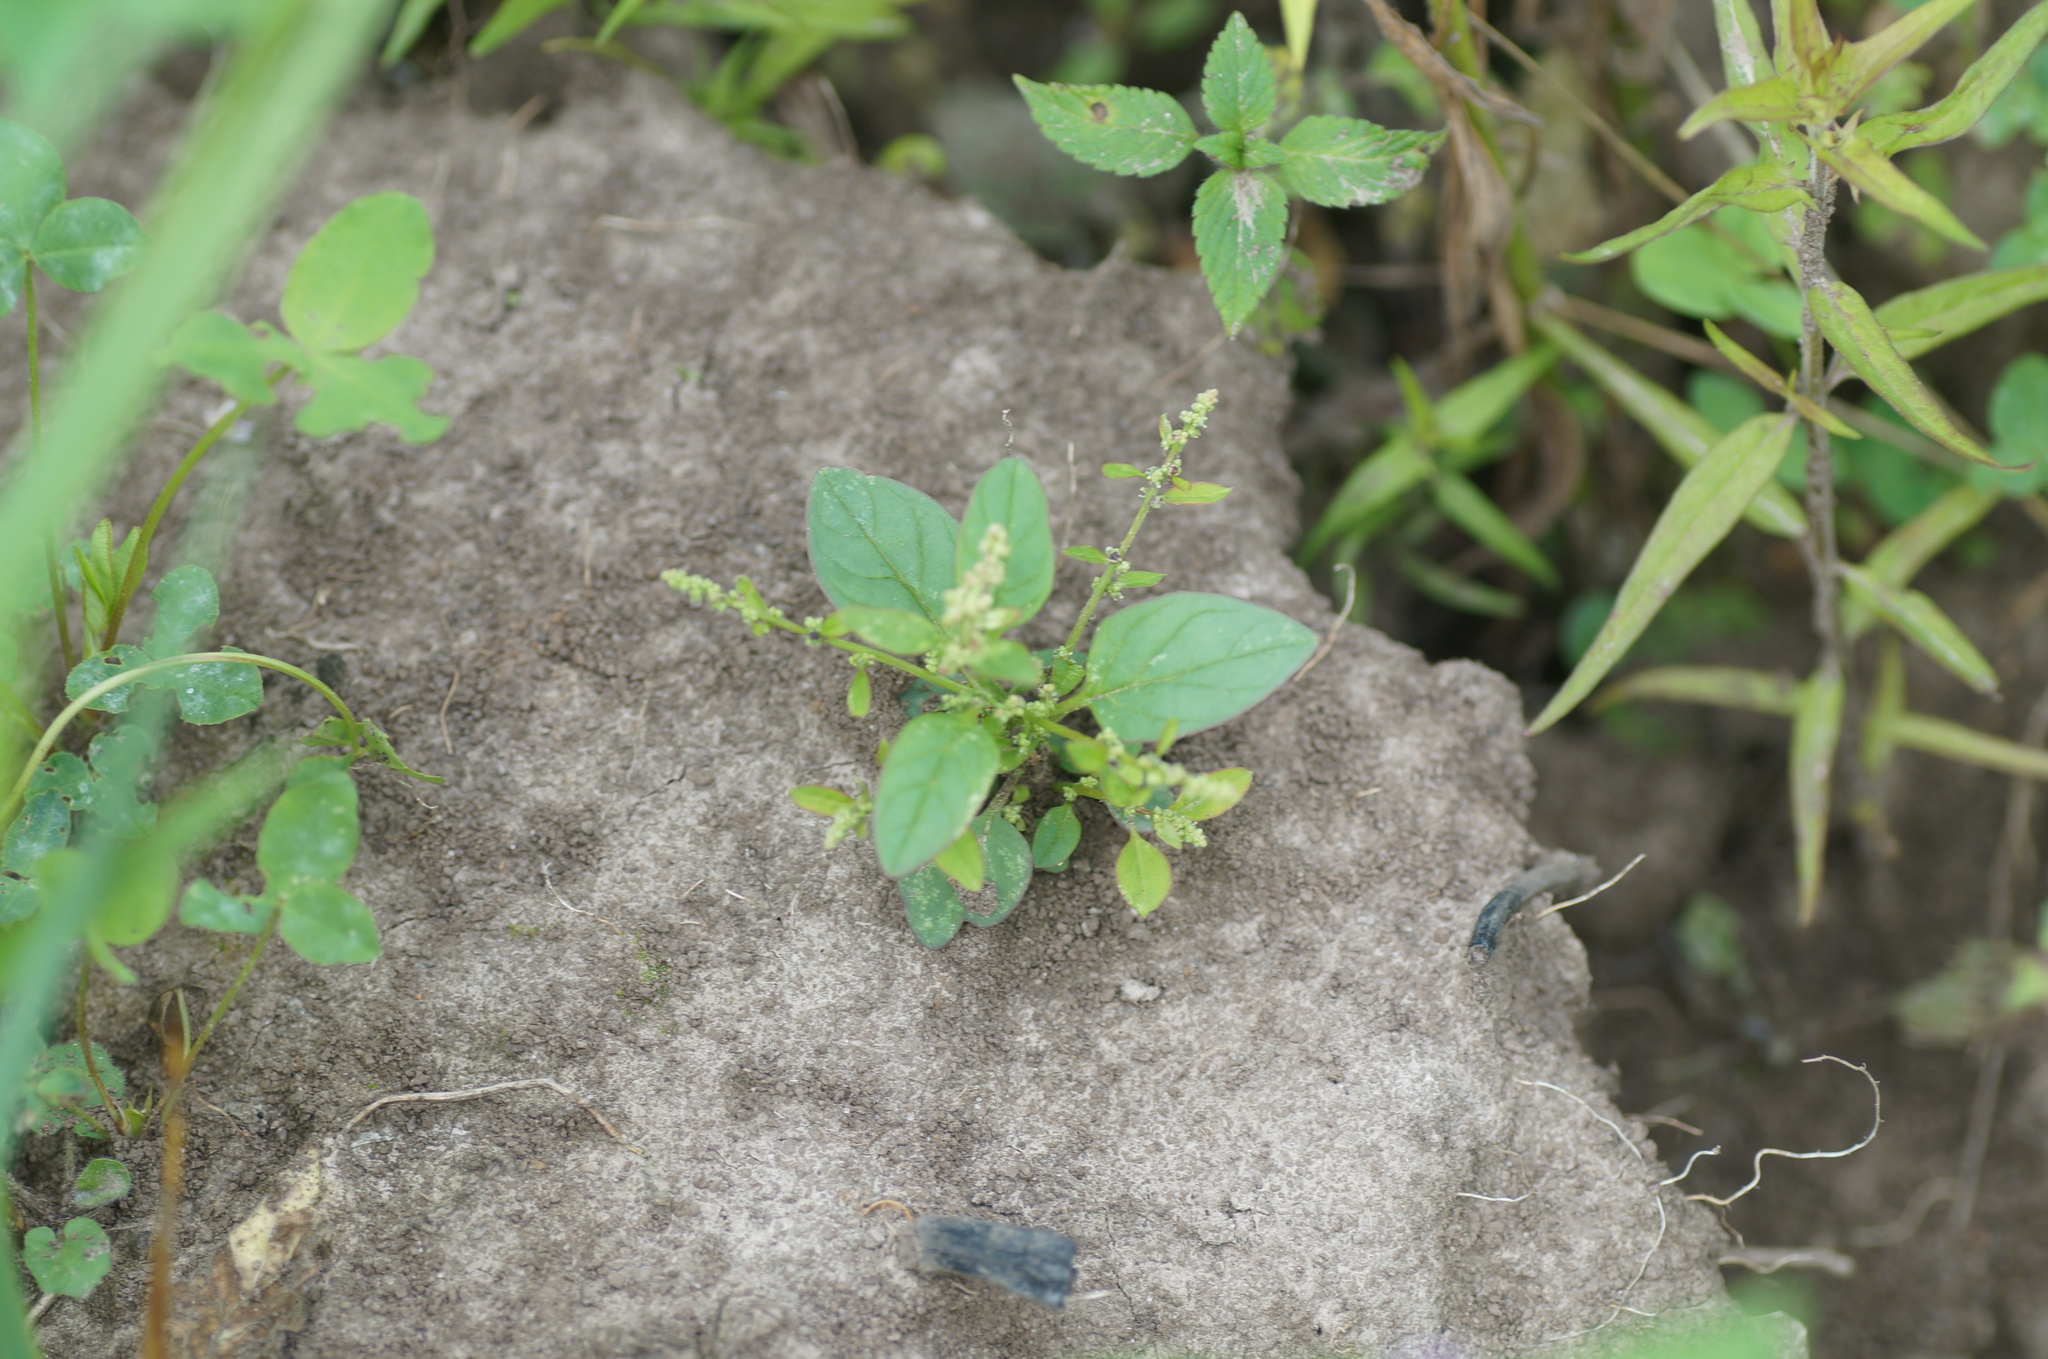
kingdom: Plantae
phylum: Tracheophyta
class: Magnoliopsida
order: Caryophyllales
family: Amaranthaceae
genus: Lipandra
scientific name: Lipandra polysperma
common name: Many-seed goosefoot
